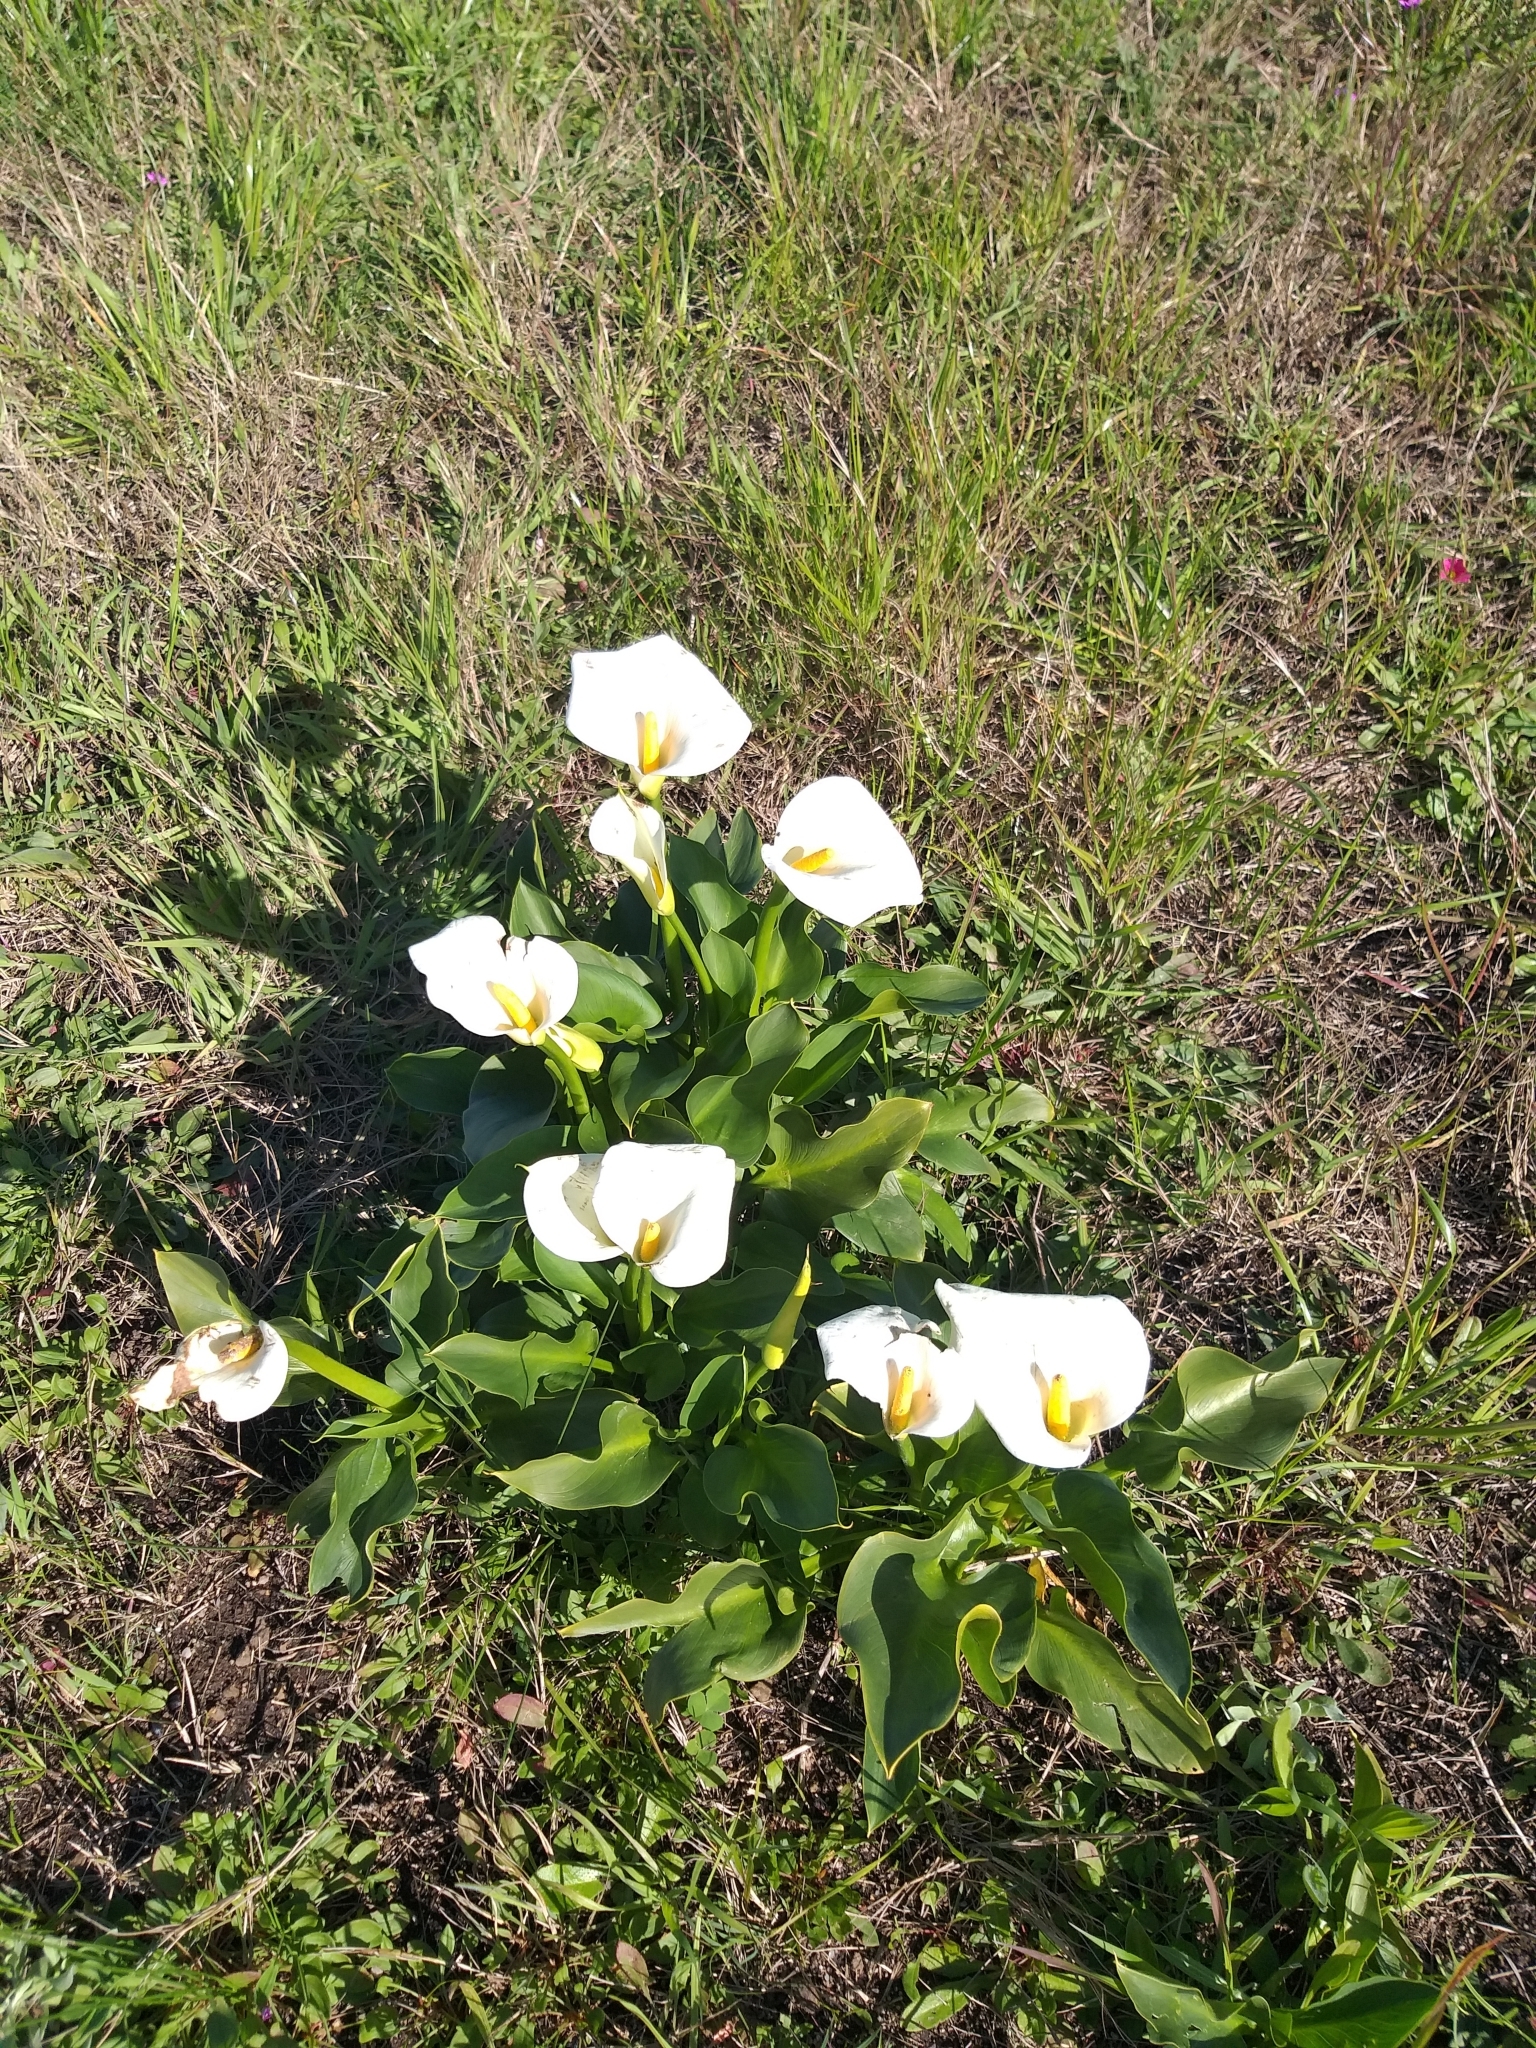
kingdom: Plantae
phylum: Tracheophyta
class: Liliopsida
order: Alismatales
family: Araceae
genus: Zantedeschia
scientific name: Zantedeschia aethiopica
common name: Altar-lily
